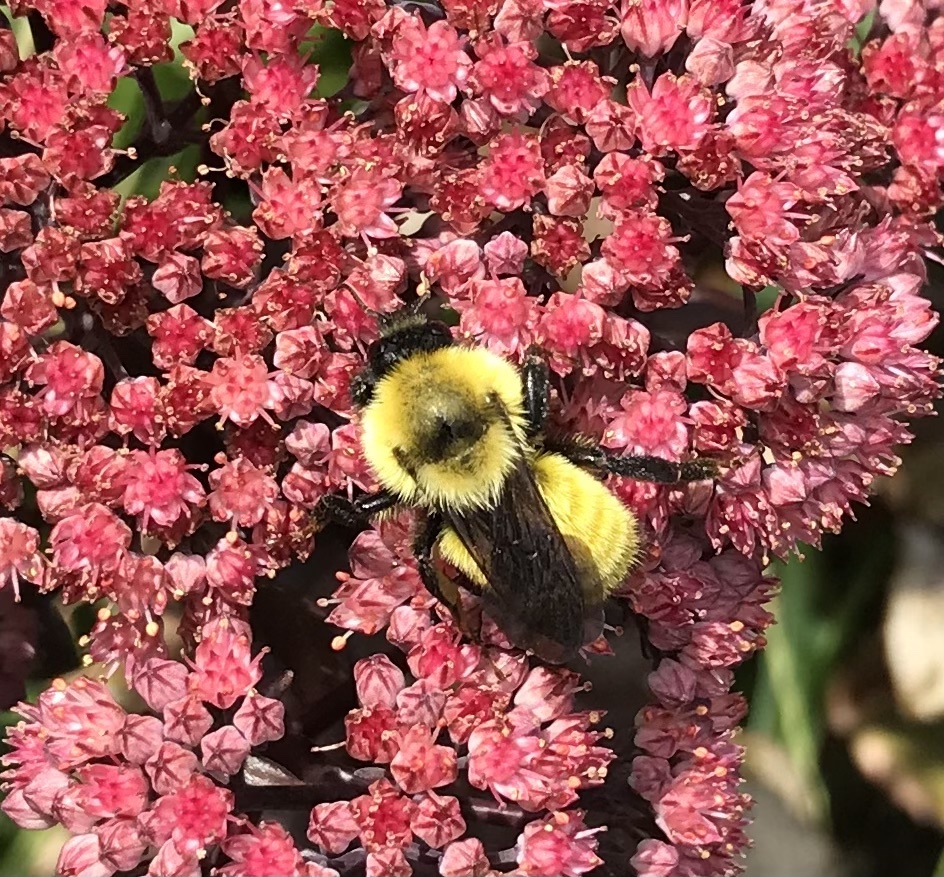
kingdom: Animalia
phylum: Arthropoda
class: Insecta
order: Hymenoptera
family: Apidae
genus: Bombus
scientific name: Bombus fervidus
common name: Yellow bumble bee
